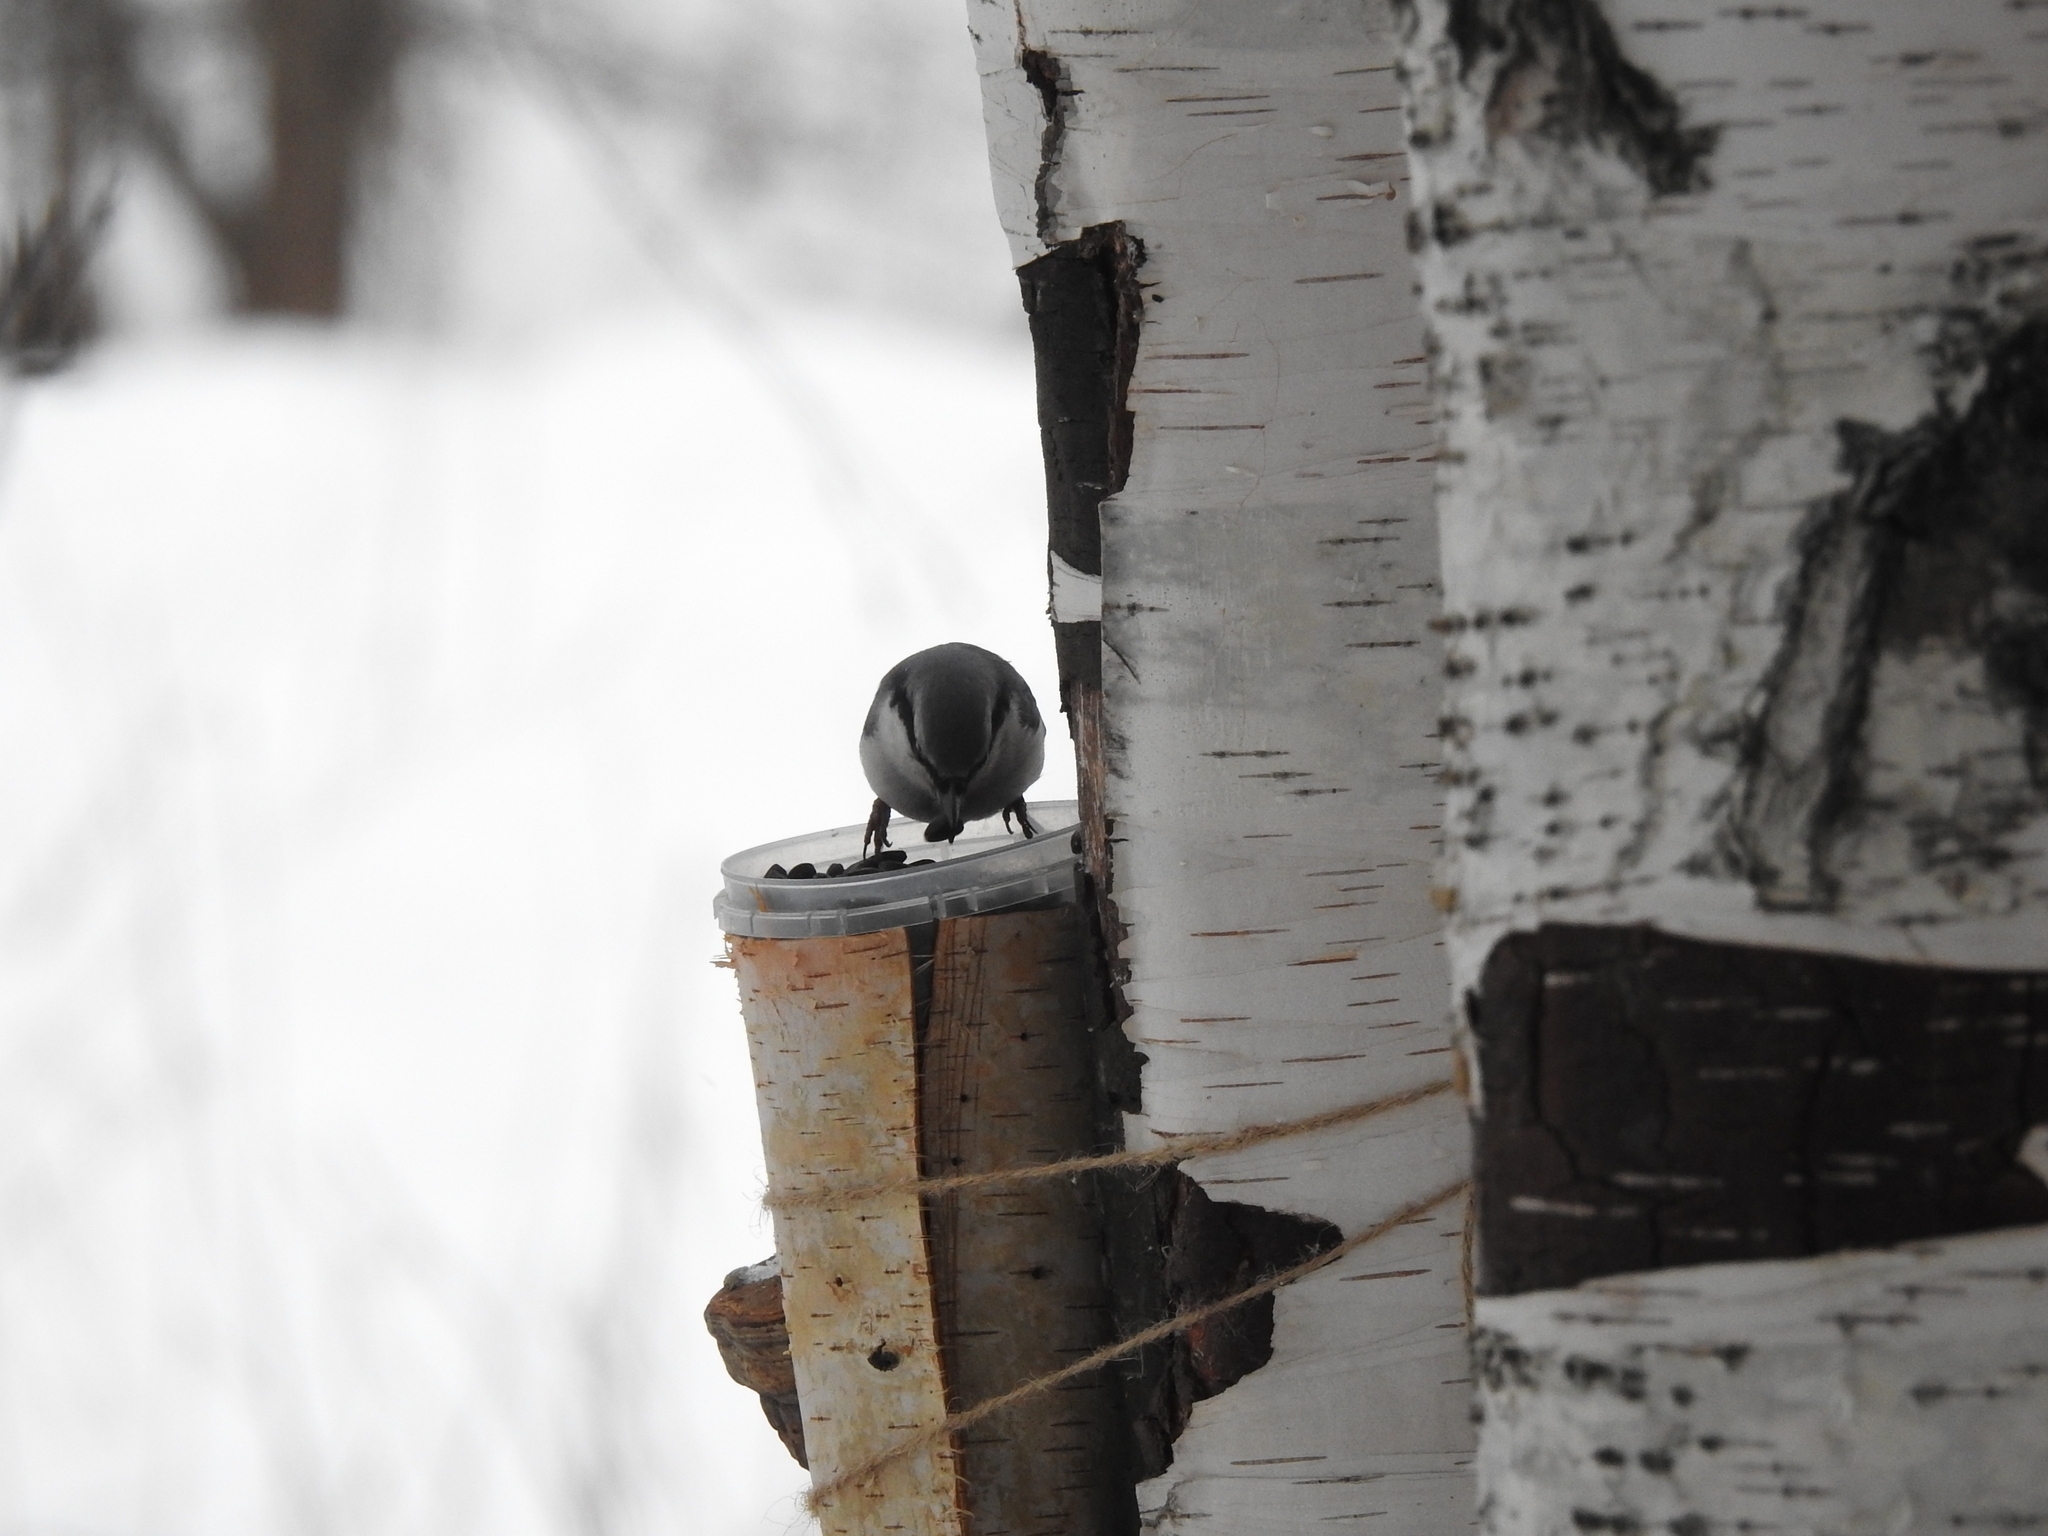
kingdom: Animalia
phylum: Chordata
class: Aves
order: Passeriformes
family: Sittidae
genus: Sitta
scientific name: Sitta europaea
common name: Eurasian nuthatch
